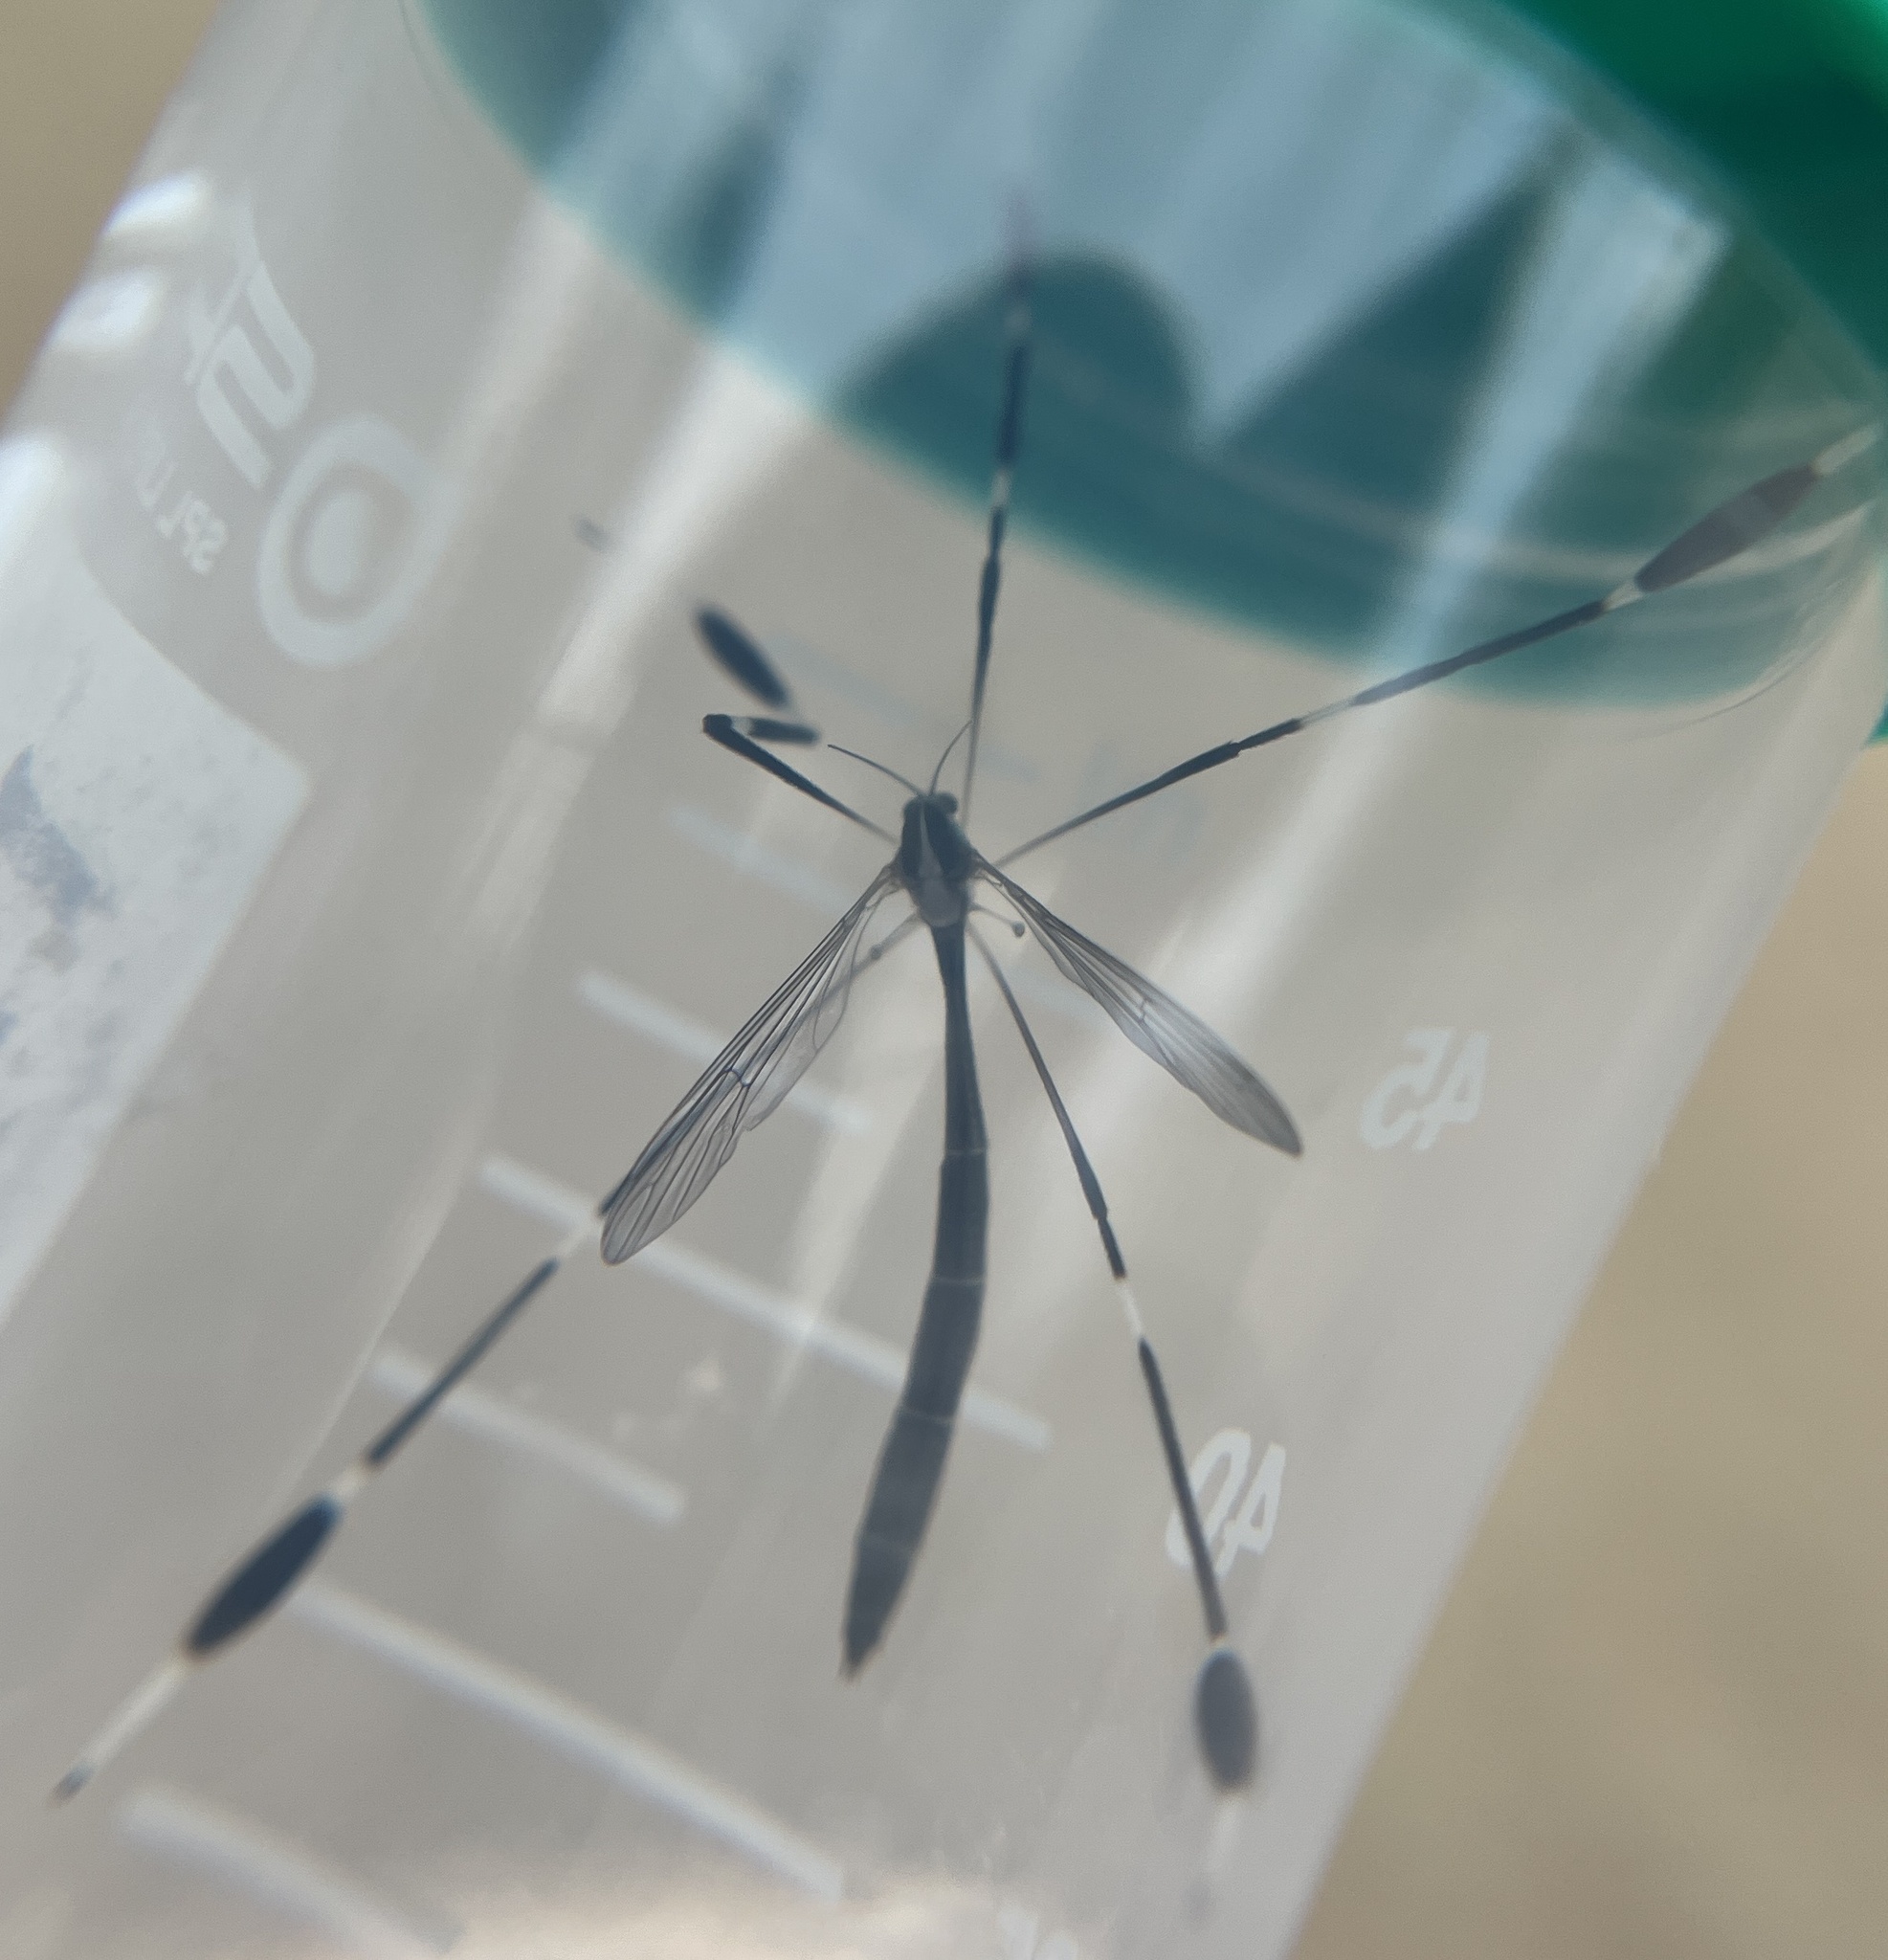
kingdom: Animalia
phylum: Arthropoda
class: Insecta
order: Diptera
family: Ptychopteridae
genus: Bittacomorpha
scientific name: Bittacomorpha clavipes
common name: Eastern phantom crane fly
